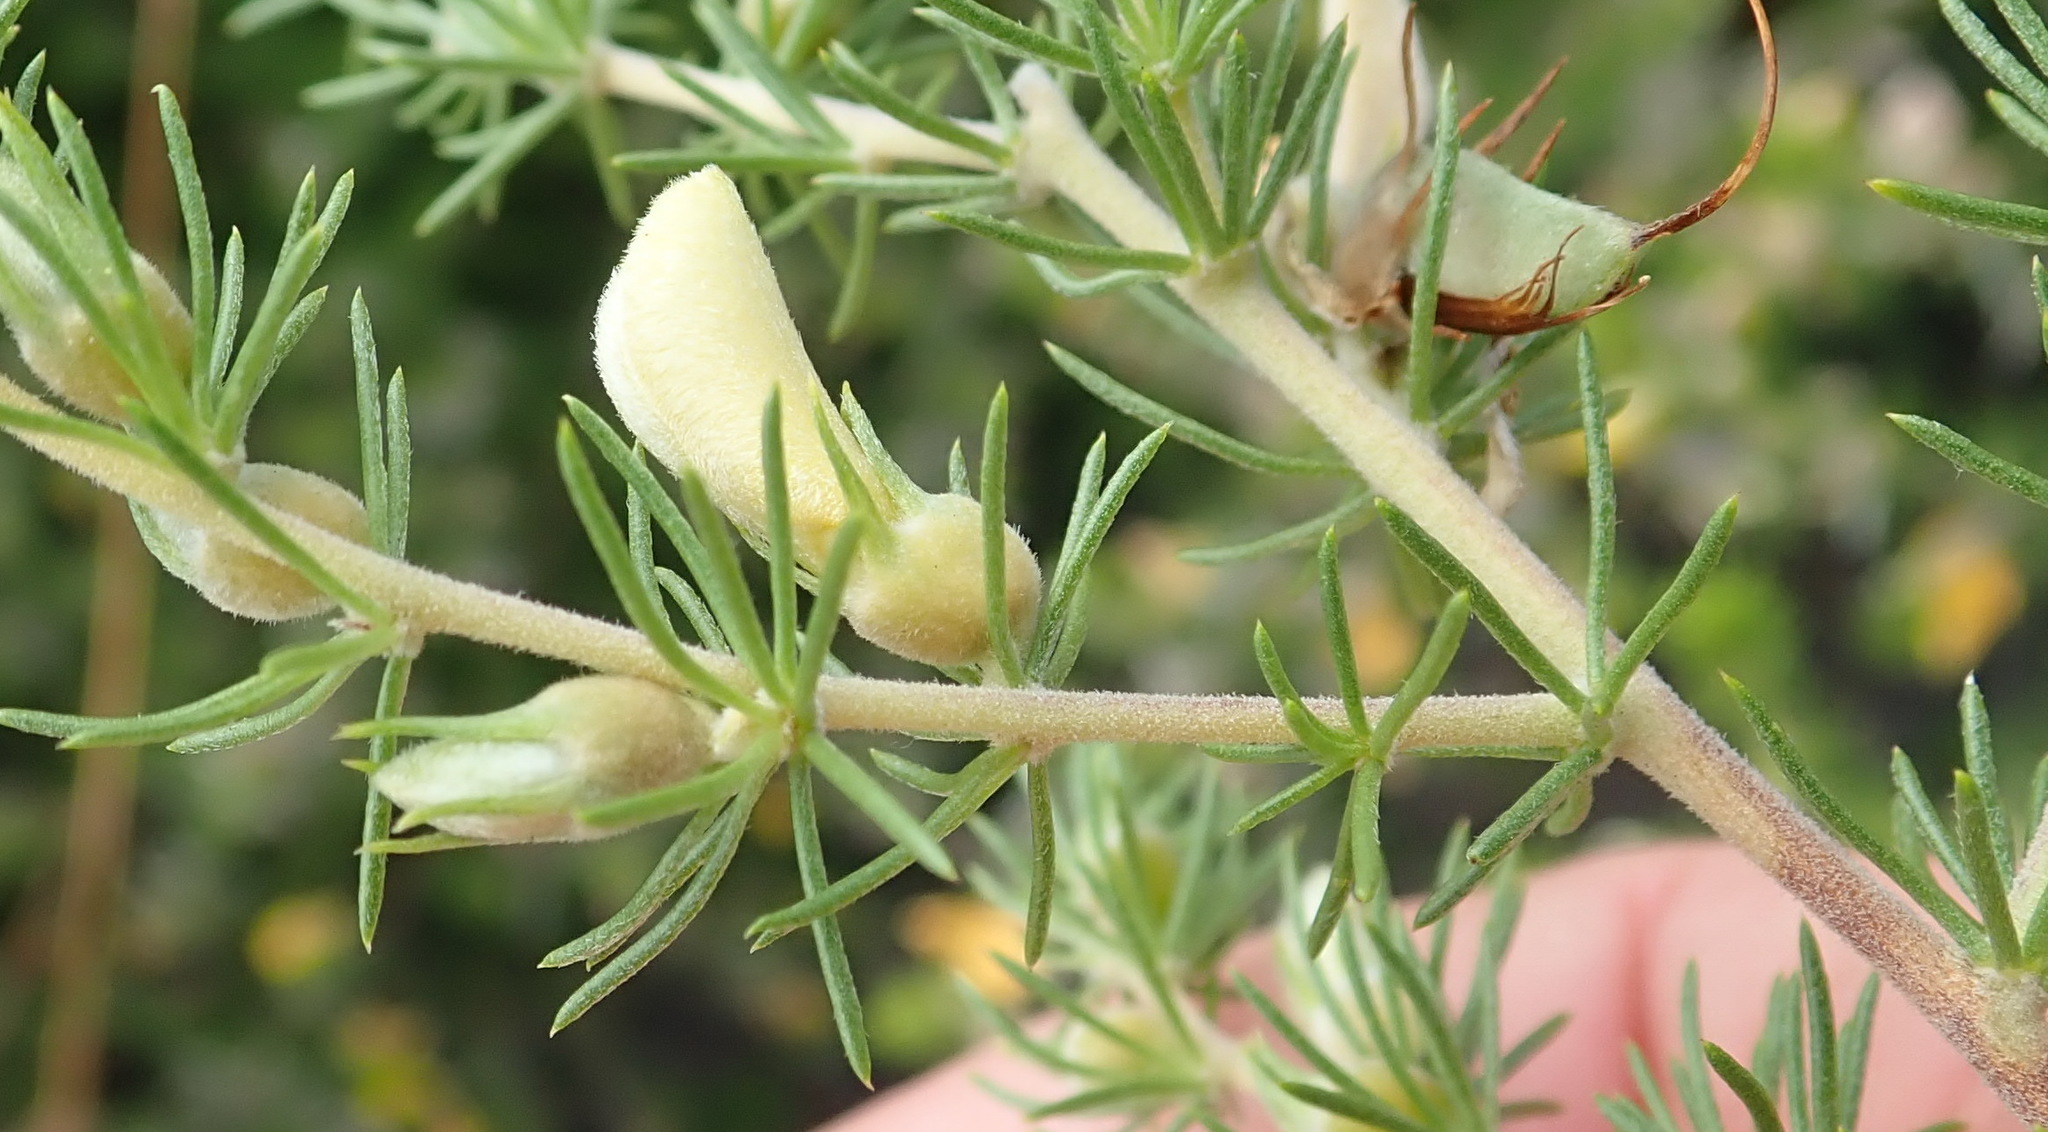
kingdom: Plantae
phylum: Tracheophyta
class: Magnoliopsida
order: Fabales
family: Fabaceae
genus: Aspalathus
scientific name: Aspalathus kougaensis
